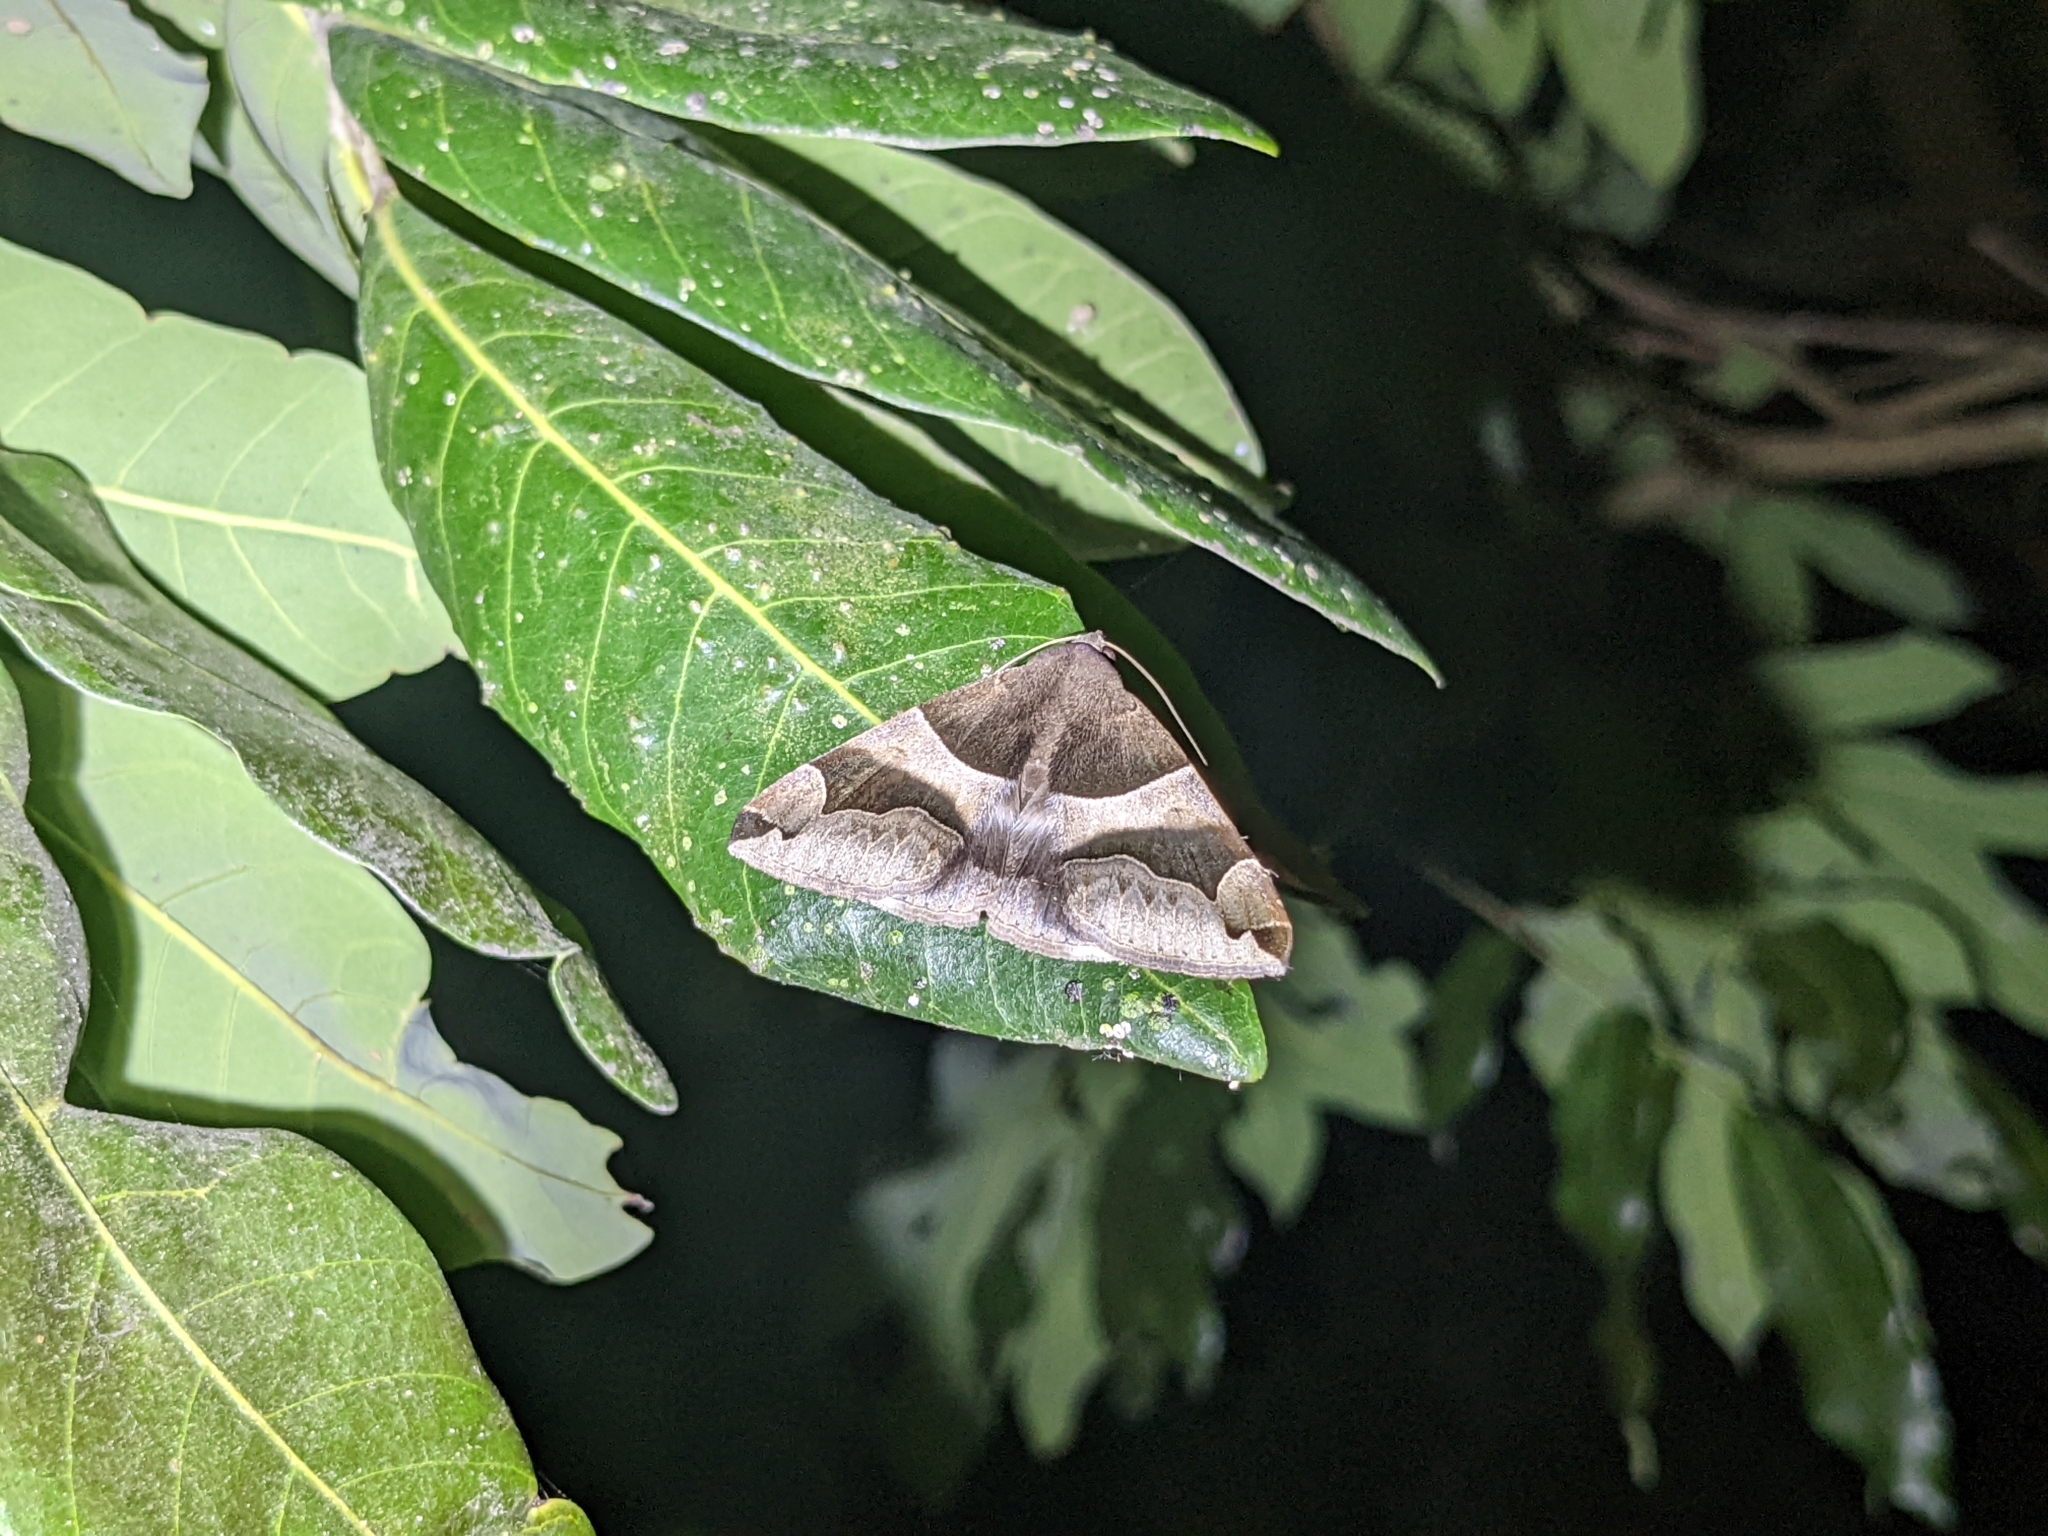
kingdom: Animalia
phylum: Arthropoda
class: Insecta
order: Lepidoptera
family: Erebidae
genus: Dysgonia
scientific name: Dysgonia stuposa
